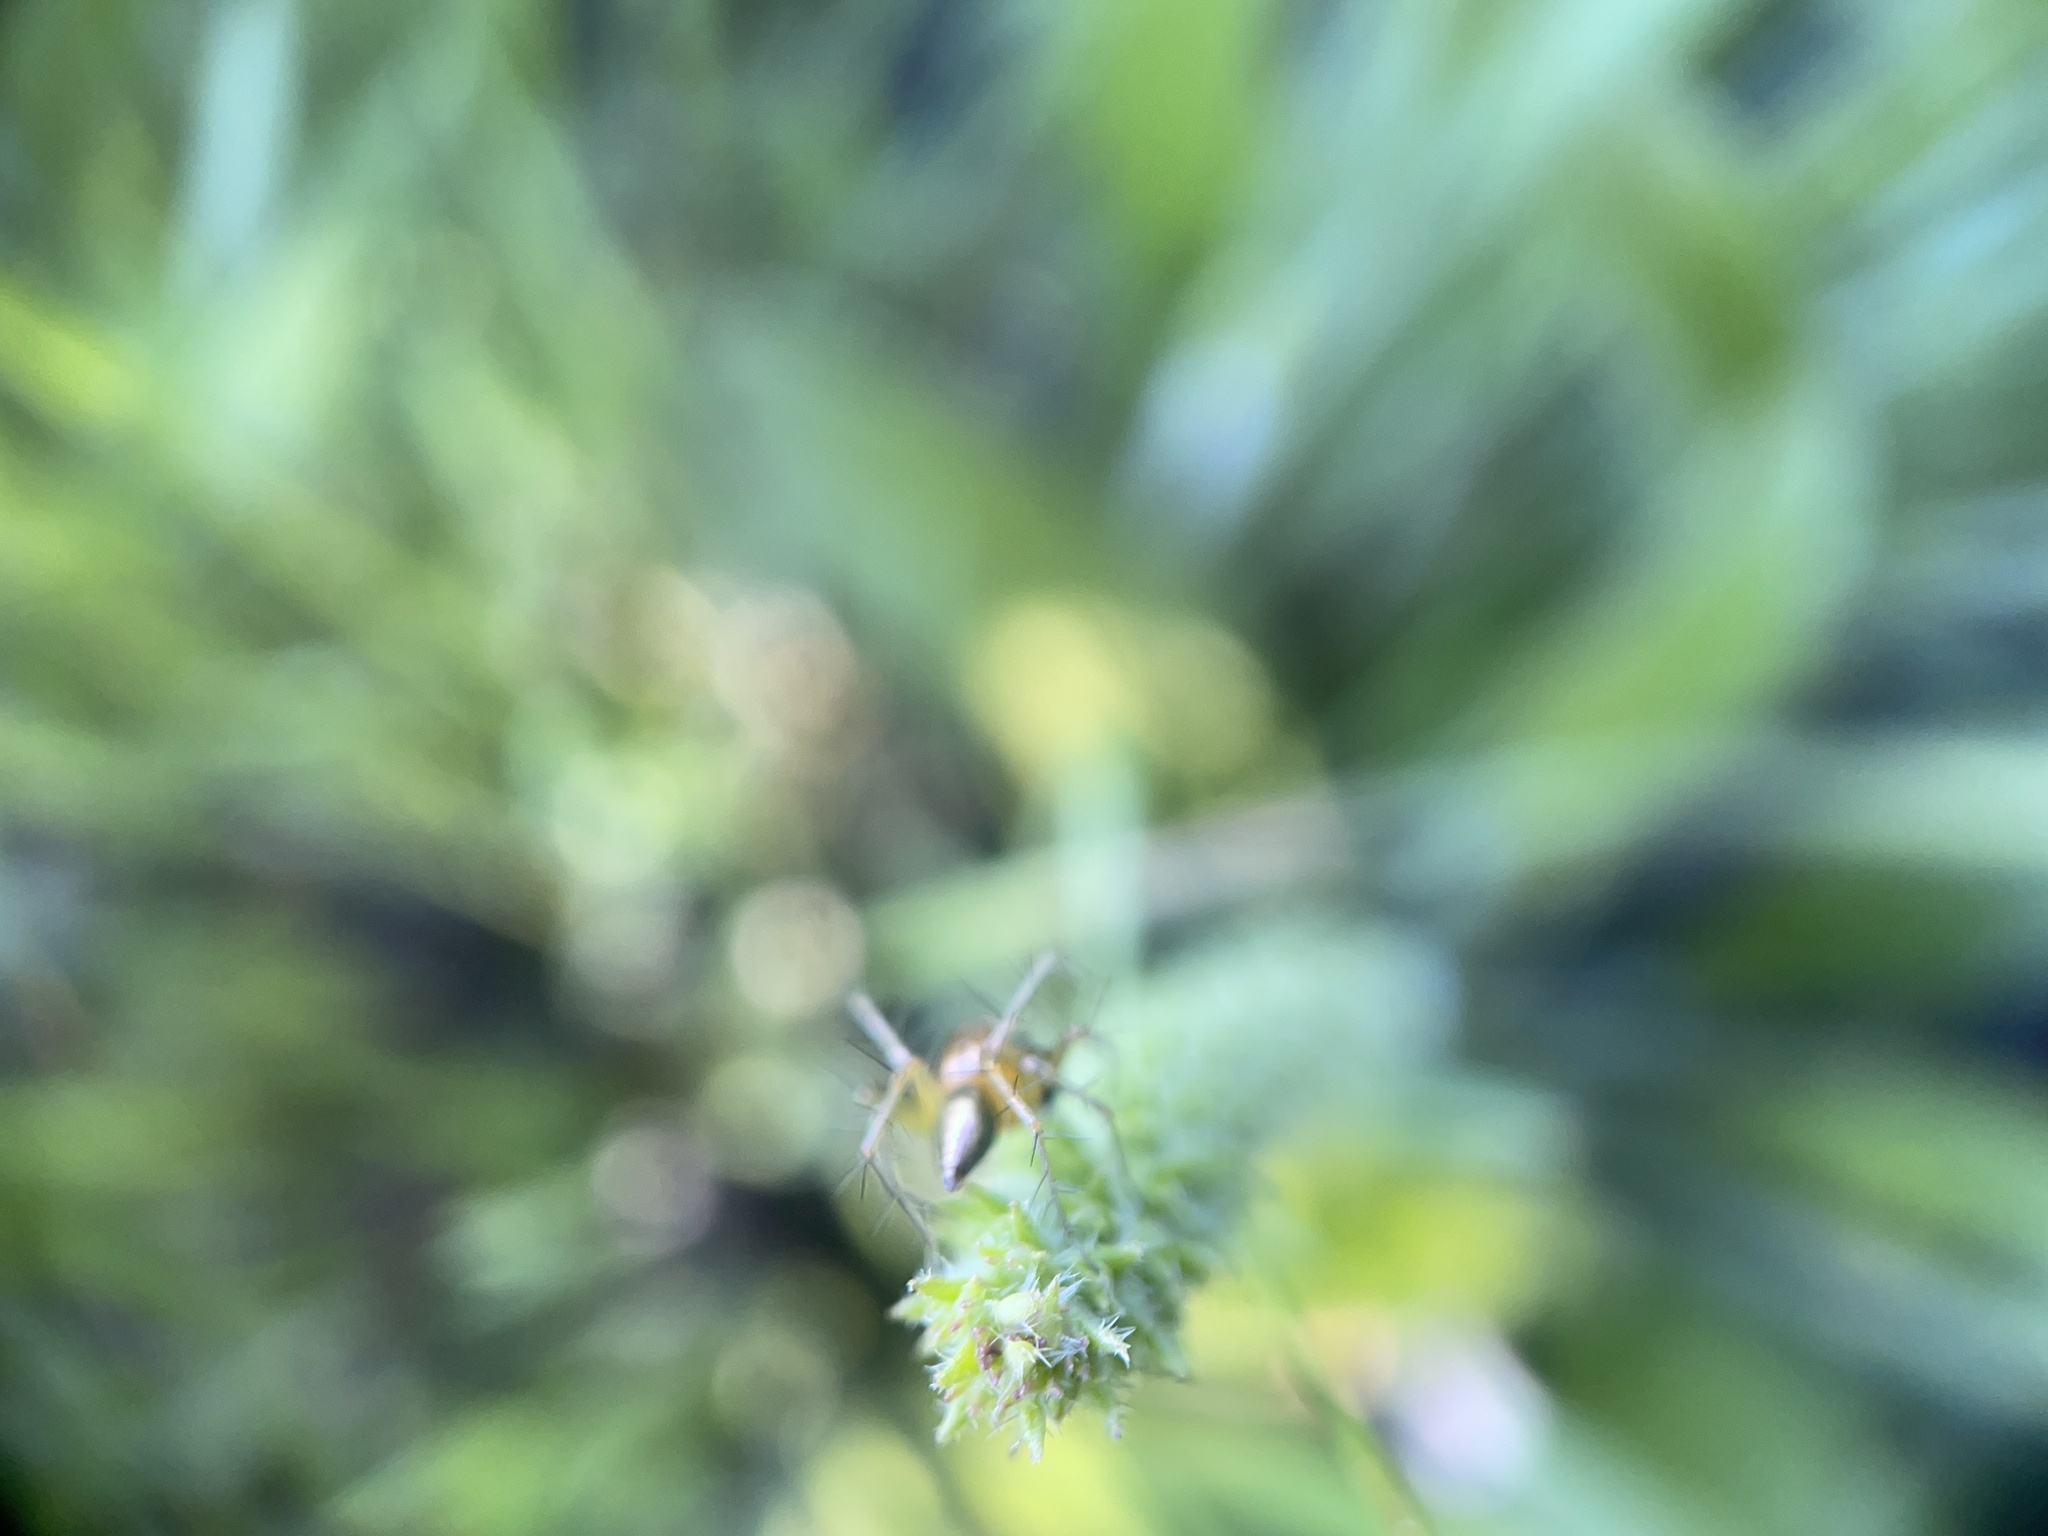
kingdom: Animalia
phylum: Arthropoda
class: Arachnida
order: Araneae
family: Oxyopidae
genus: Oxyopes
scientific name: Oxyopes salticus
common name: Lynx spiders
